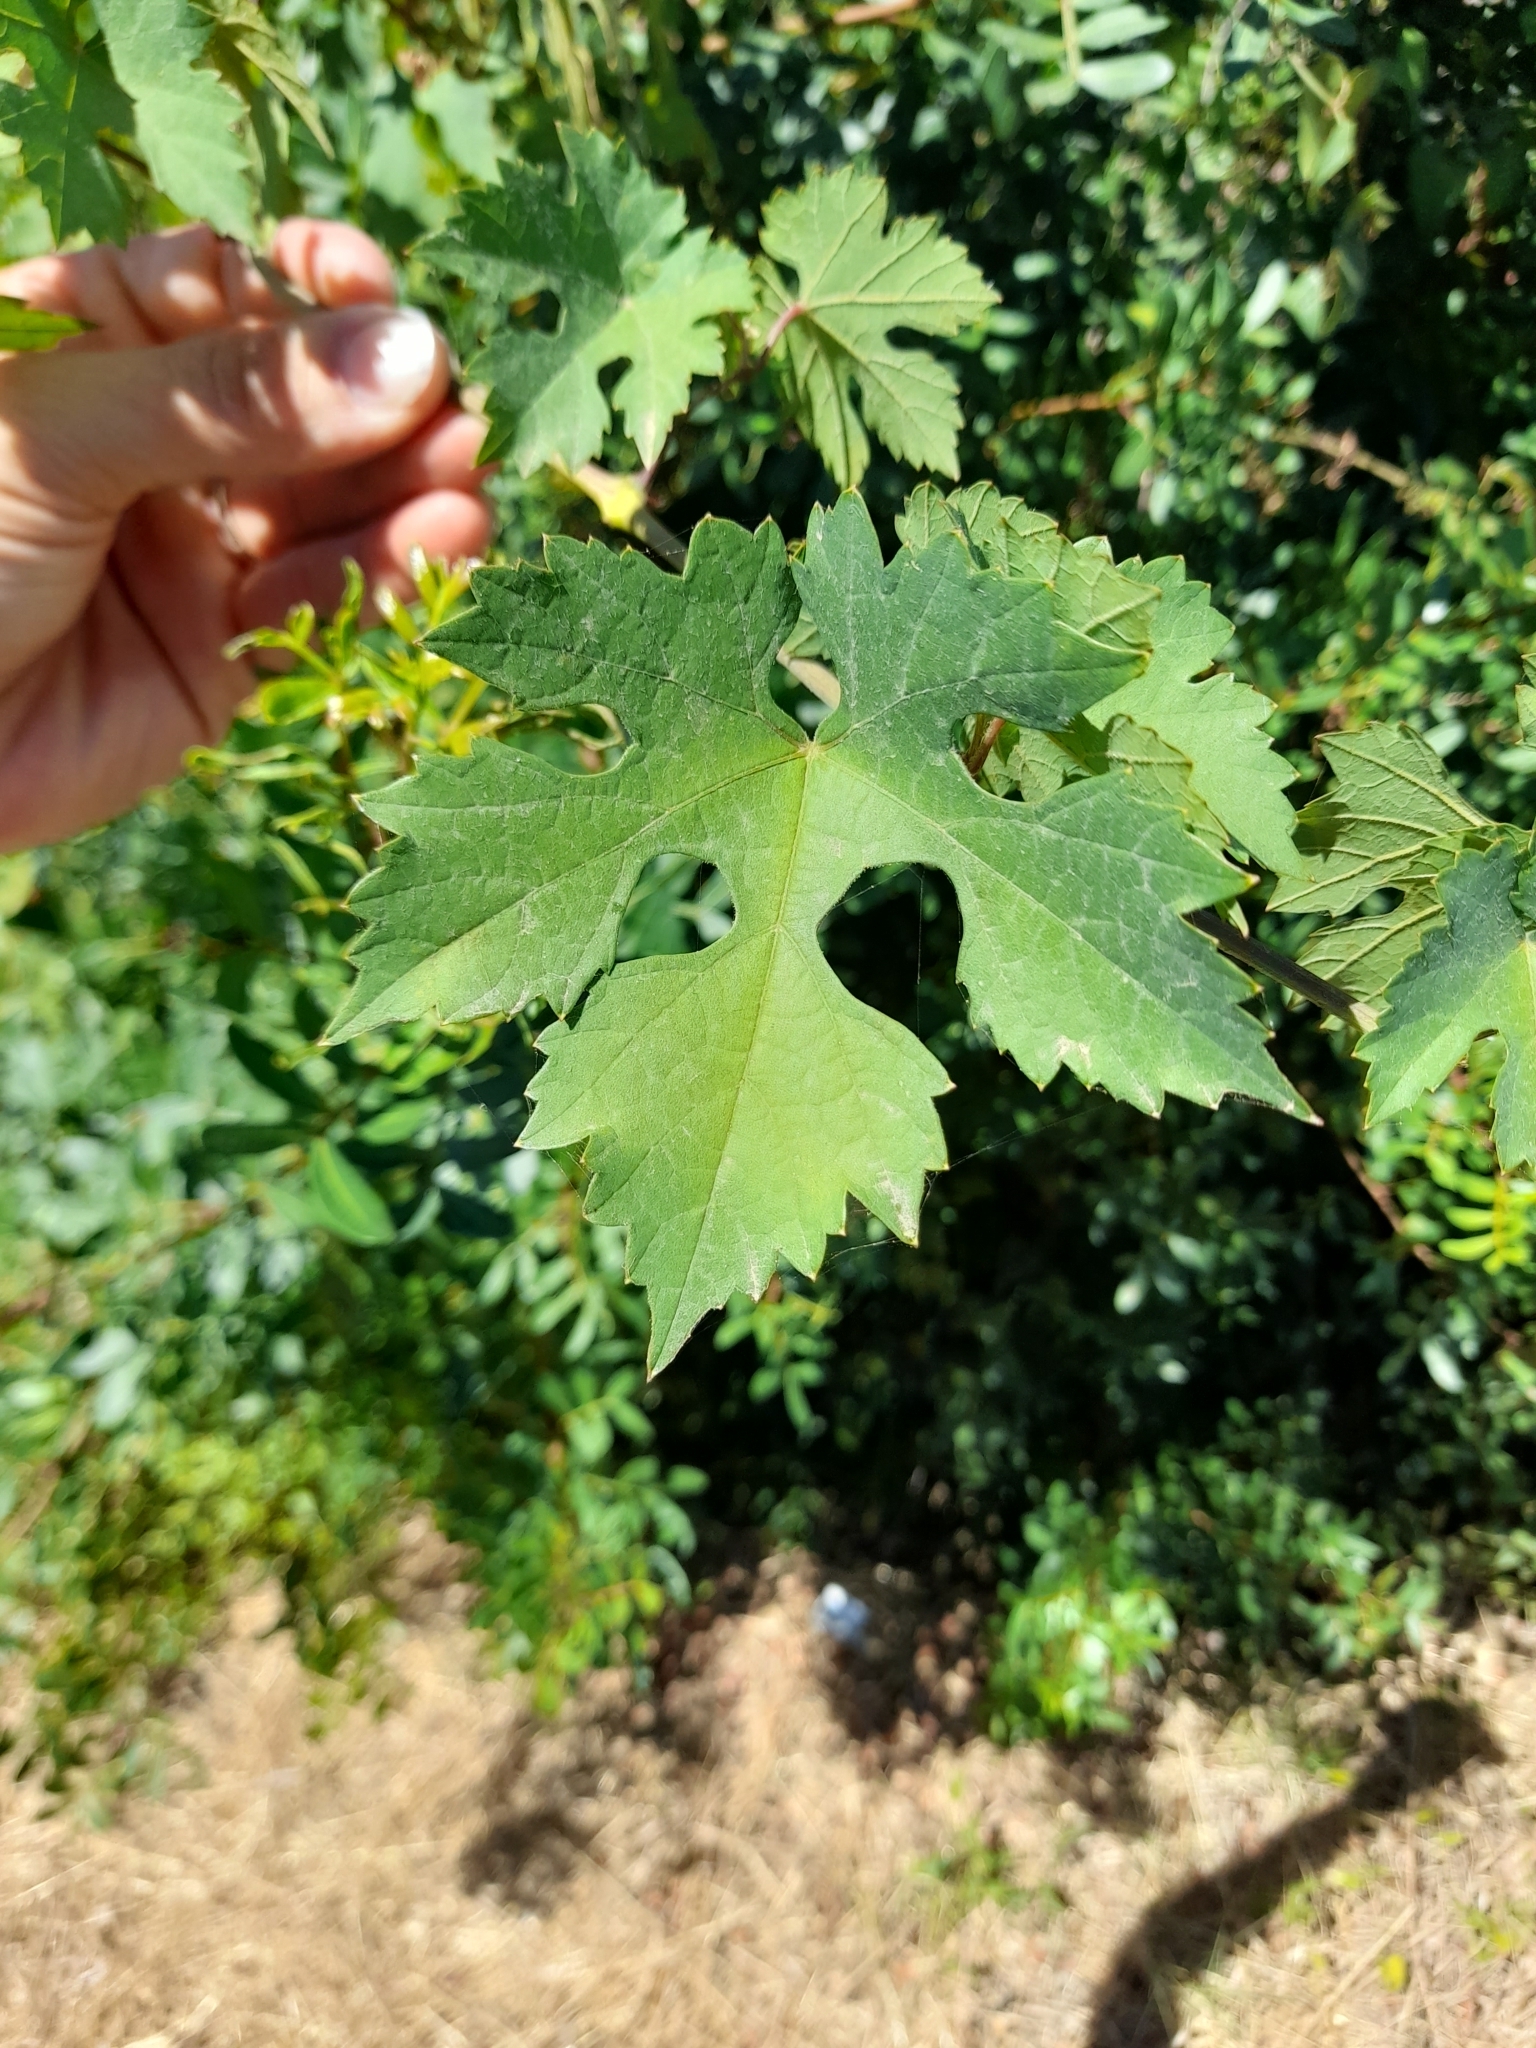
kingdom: Plantae
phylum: Tracheophyta
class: Magnoliopsida
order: Vitales
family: Vitaceae
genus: Vitis
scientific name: Vitis vinifera
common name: Grape-vine
